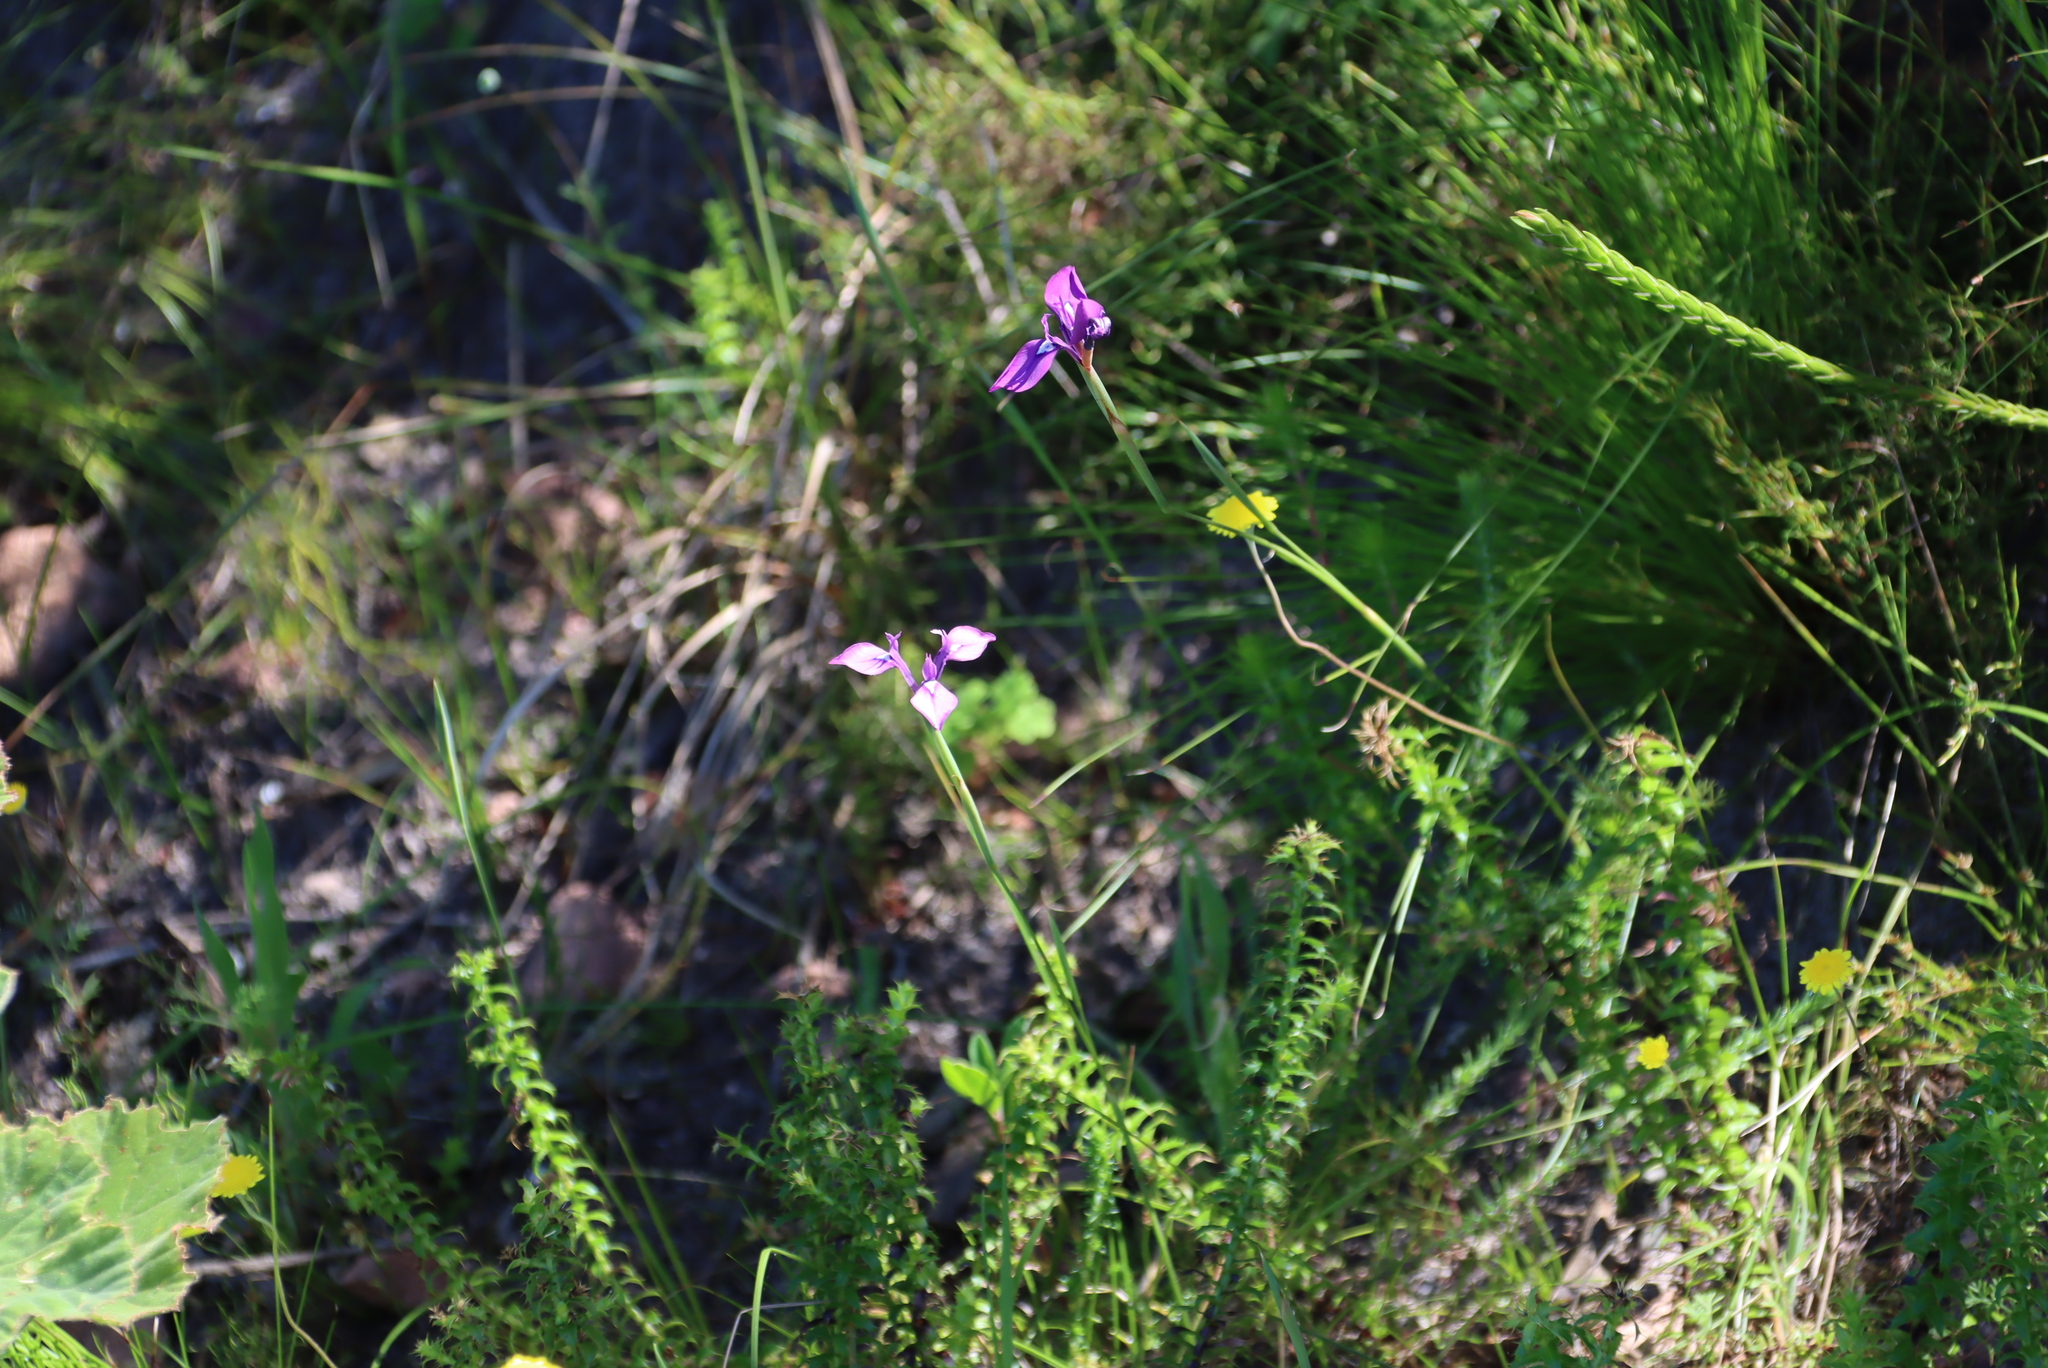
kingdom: Plantae
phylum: Tracheophyta
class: Liliopsida
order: Asparagales
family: Iridaceae
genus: Moraea
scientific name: Moraea tripetala
